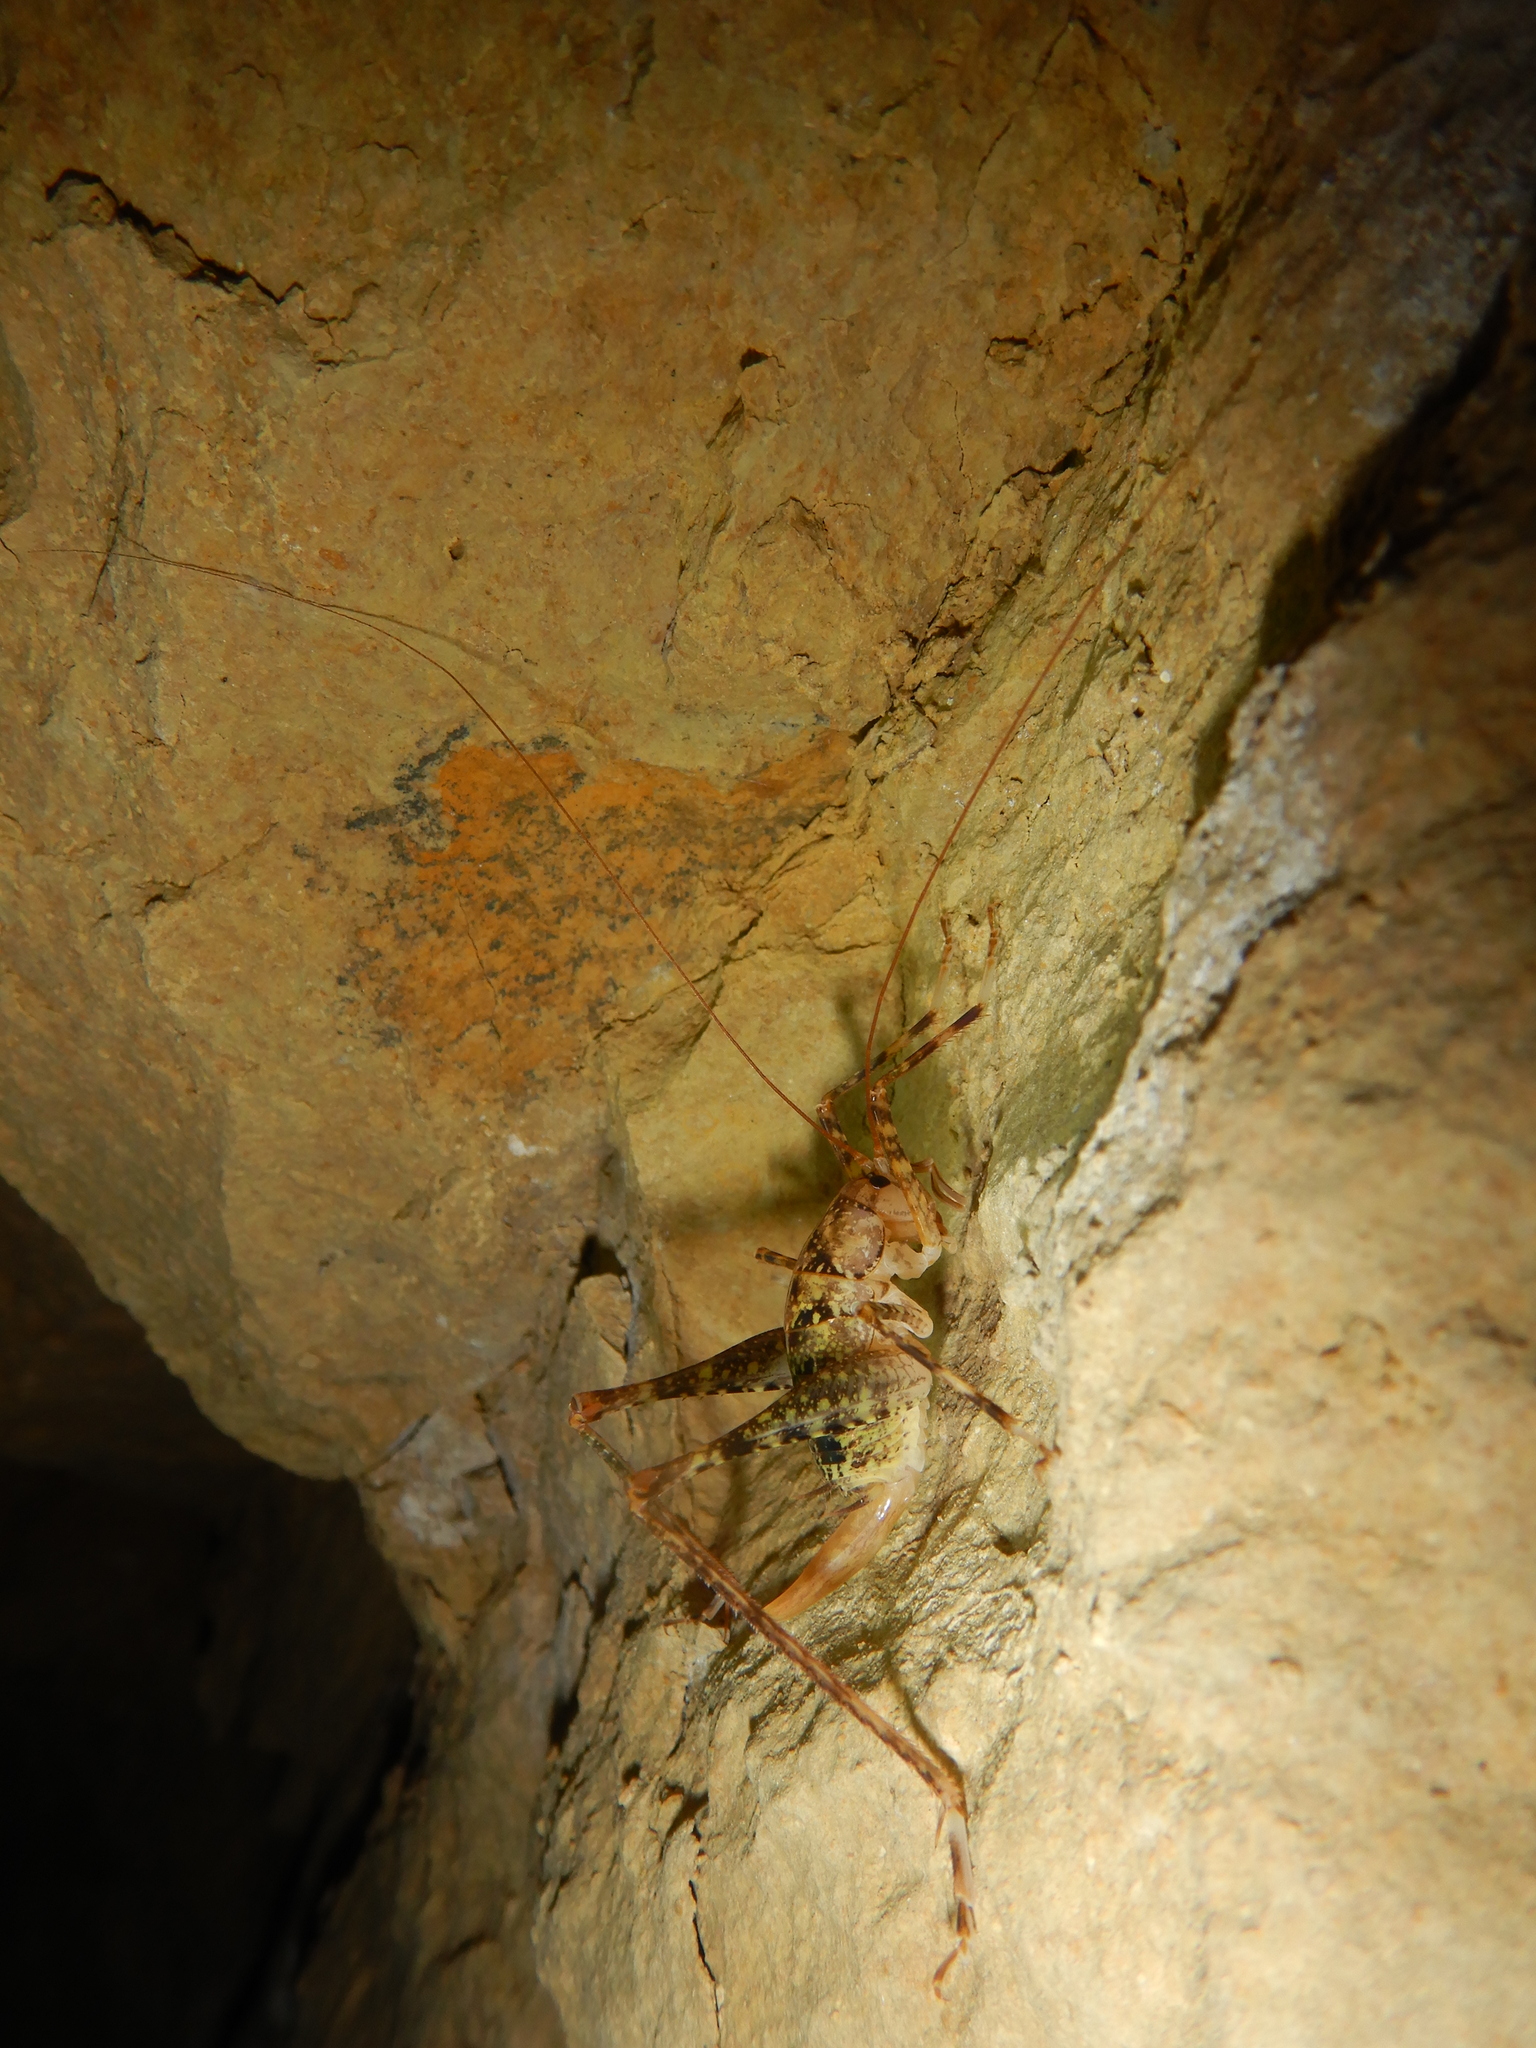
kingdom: Animalia
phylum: Arthropoda
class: Insecta
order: Orthoptera
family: Rhaphidophoridae
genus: Troglophilus
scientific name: Troglophilus neglectus
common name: Neglected cave-cricket
